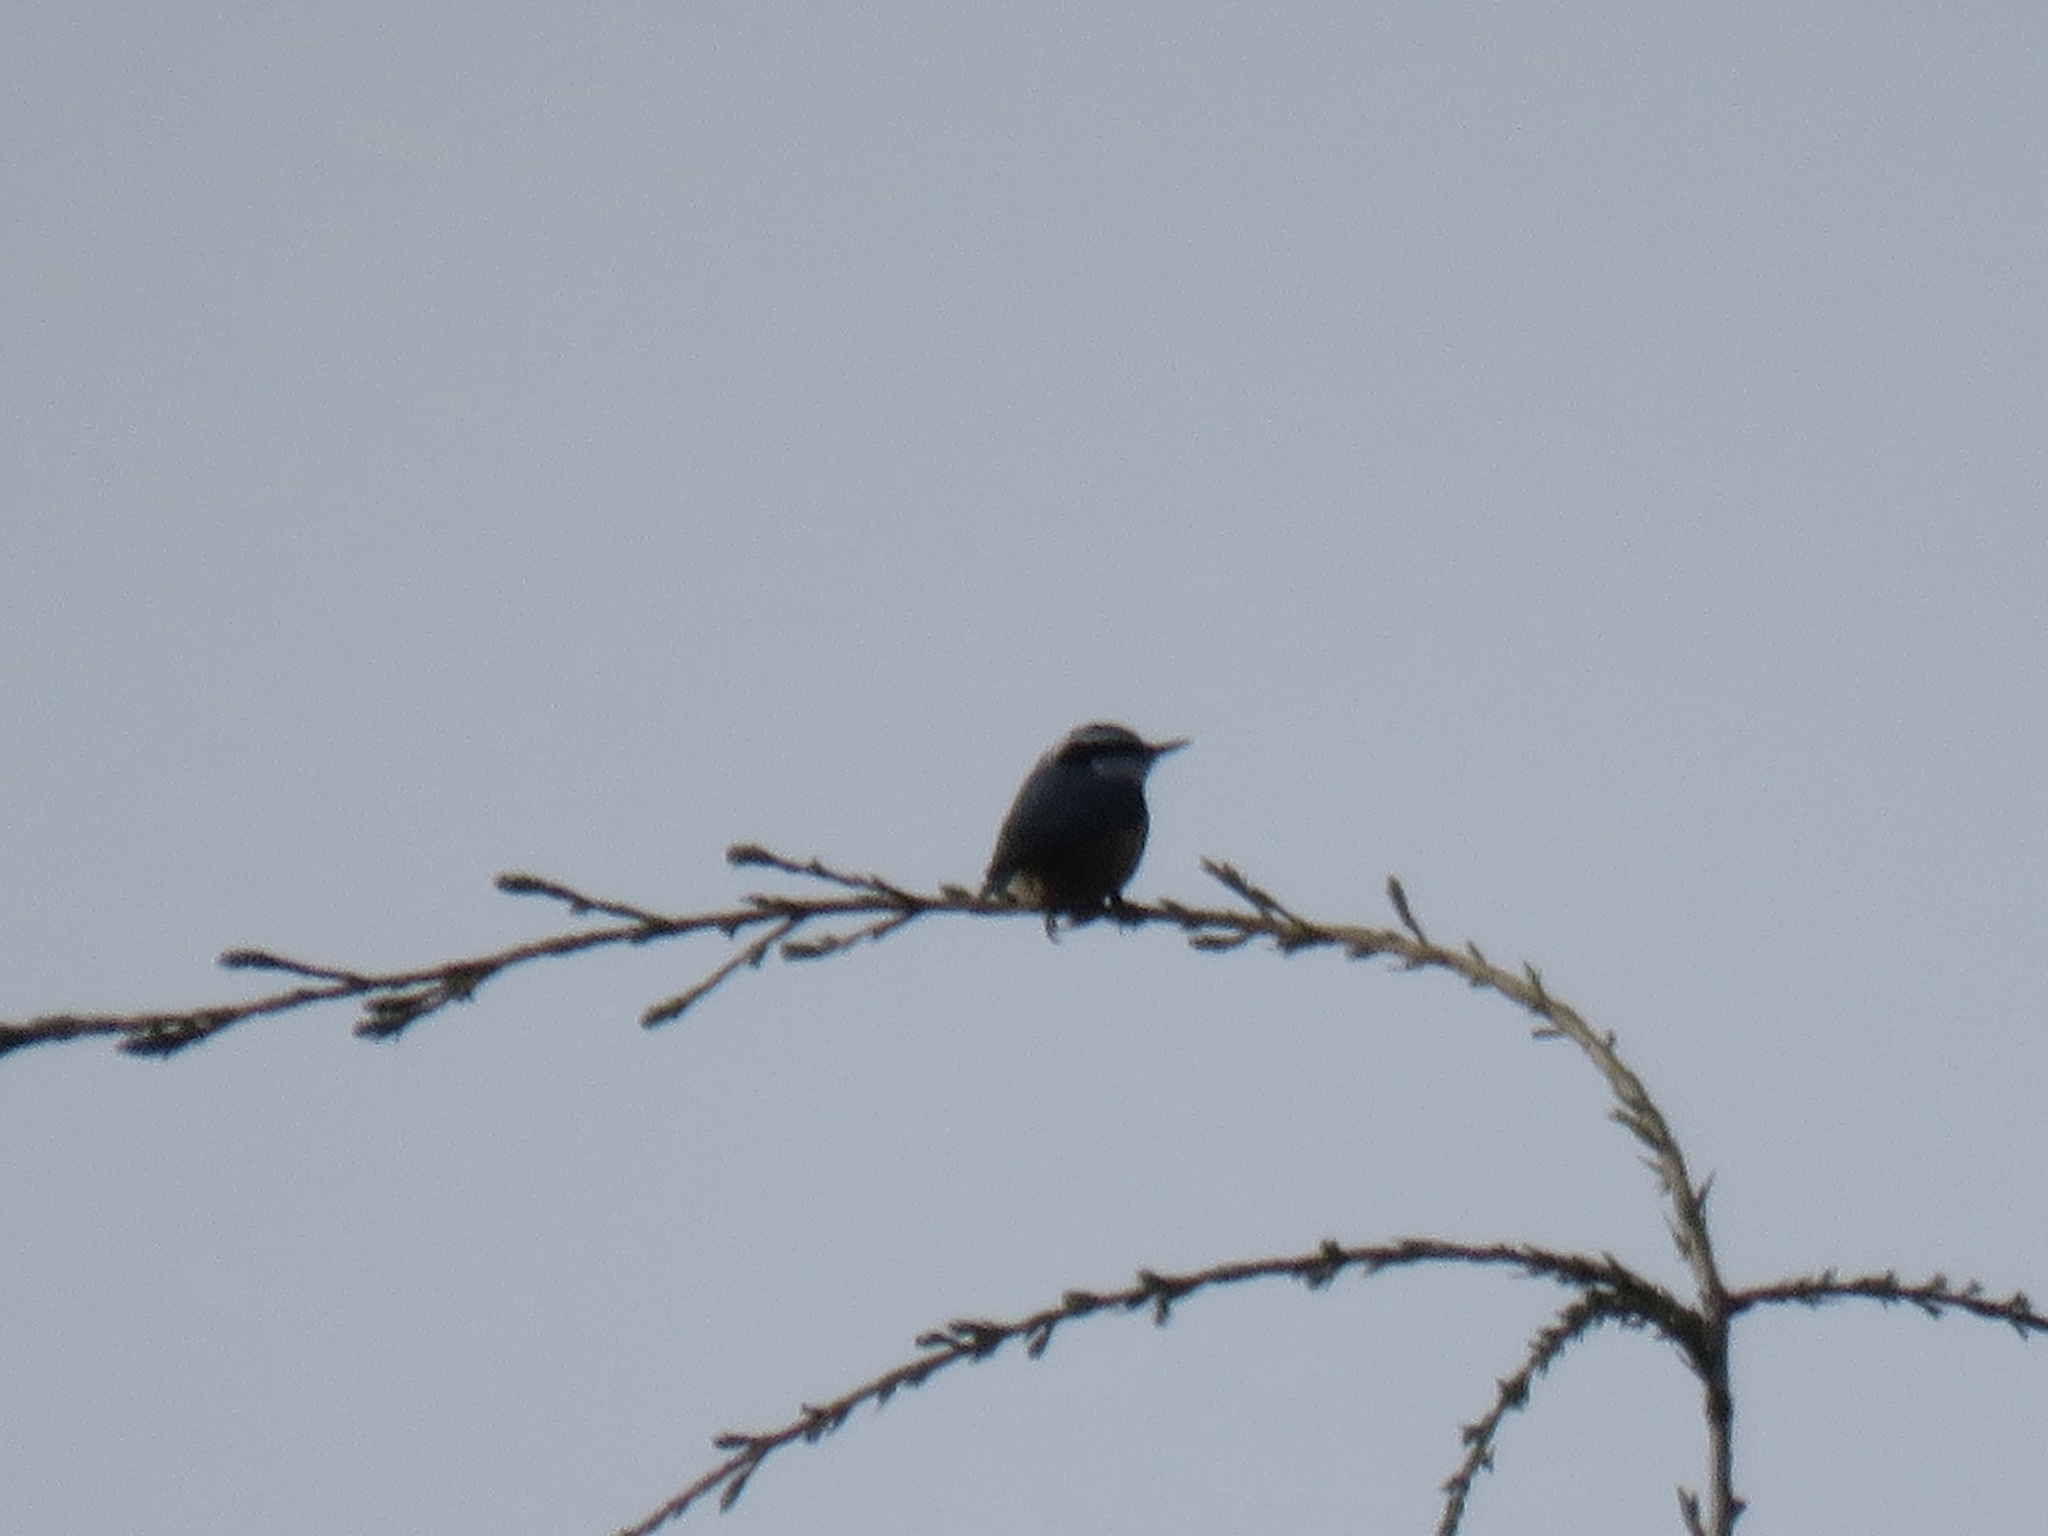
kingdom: Animalia
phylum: Chordata
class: Aves
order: Passeriformes
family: Sittidae
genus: Sitta
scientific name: Sitta canadensis
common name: Red-breasted nuthatch
